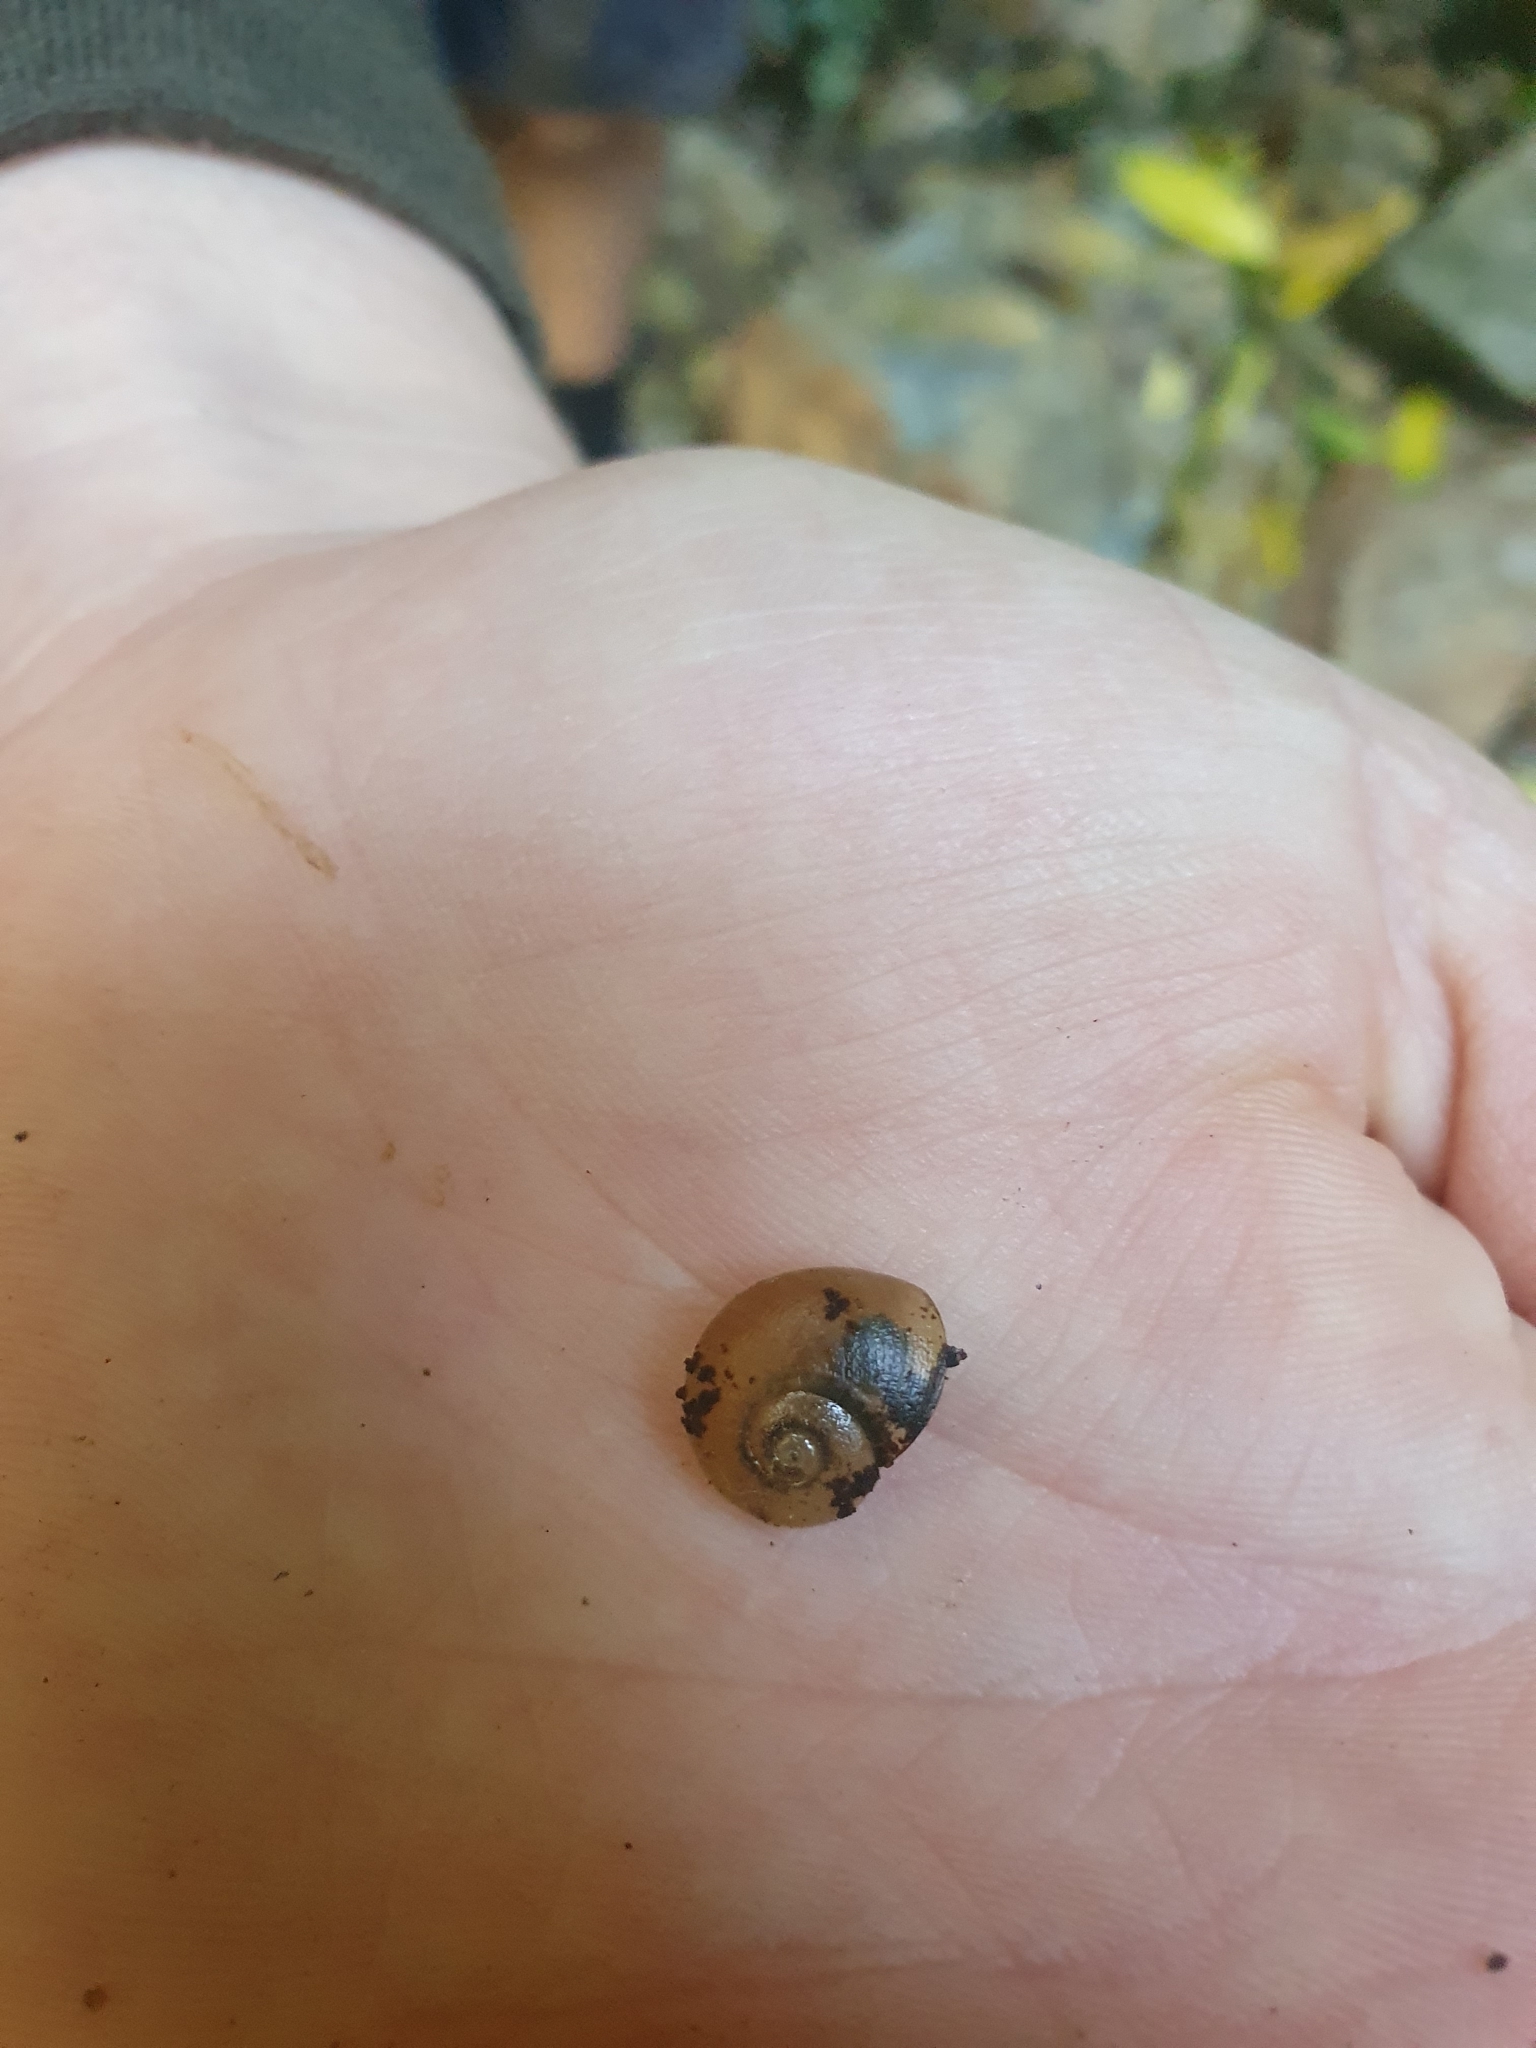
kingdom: Animalia
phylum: Mollusca
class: Gastropoda
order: Stylommatophora
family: Rhytididae
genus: Rhytida
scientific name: Rhytida meesoni
